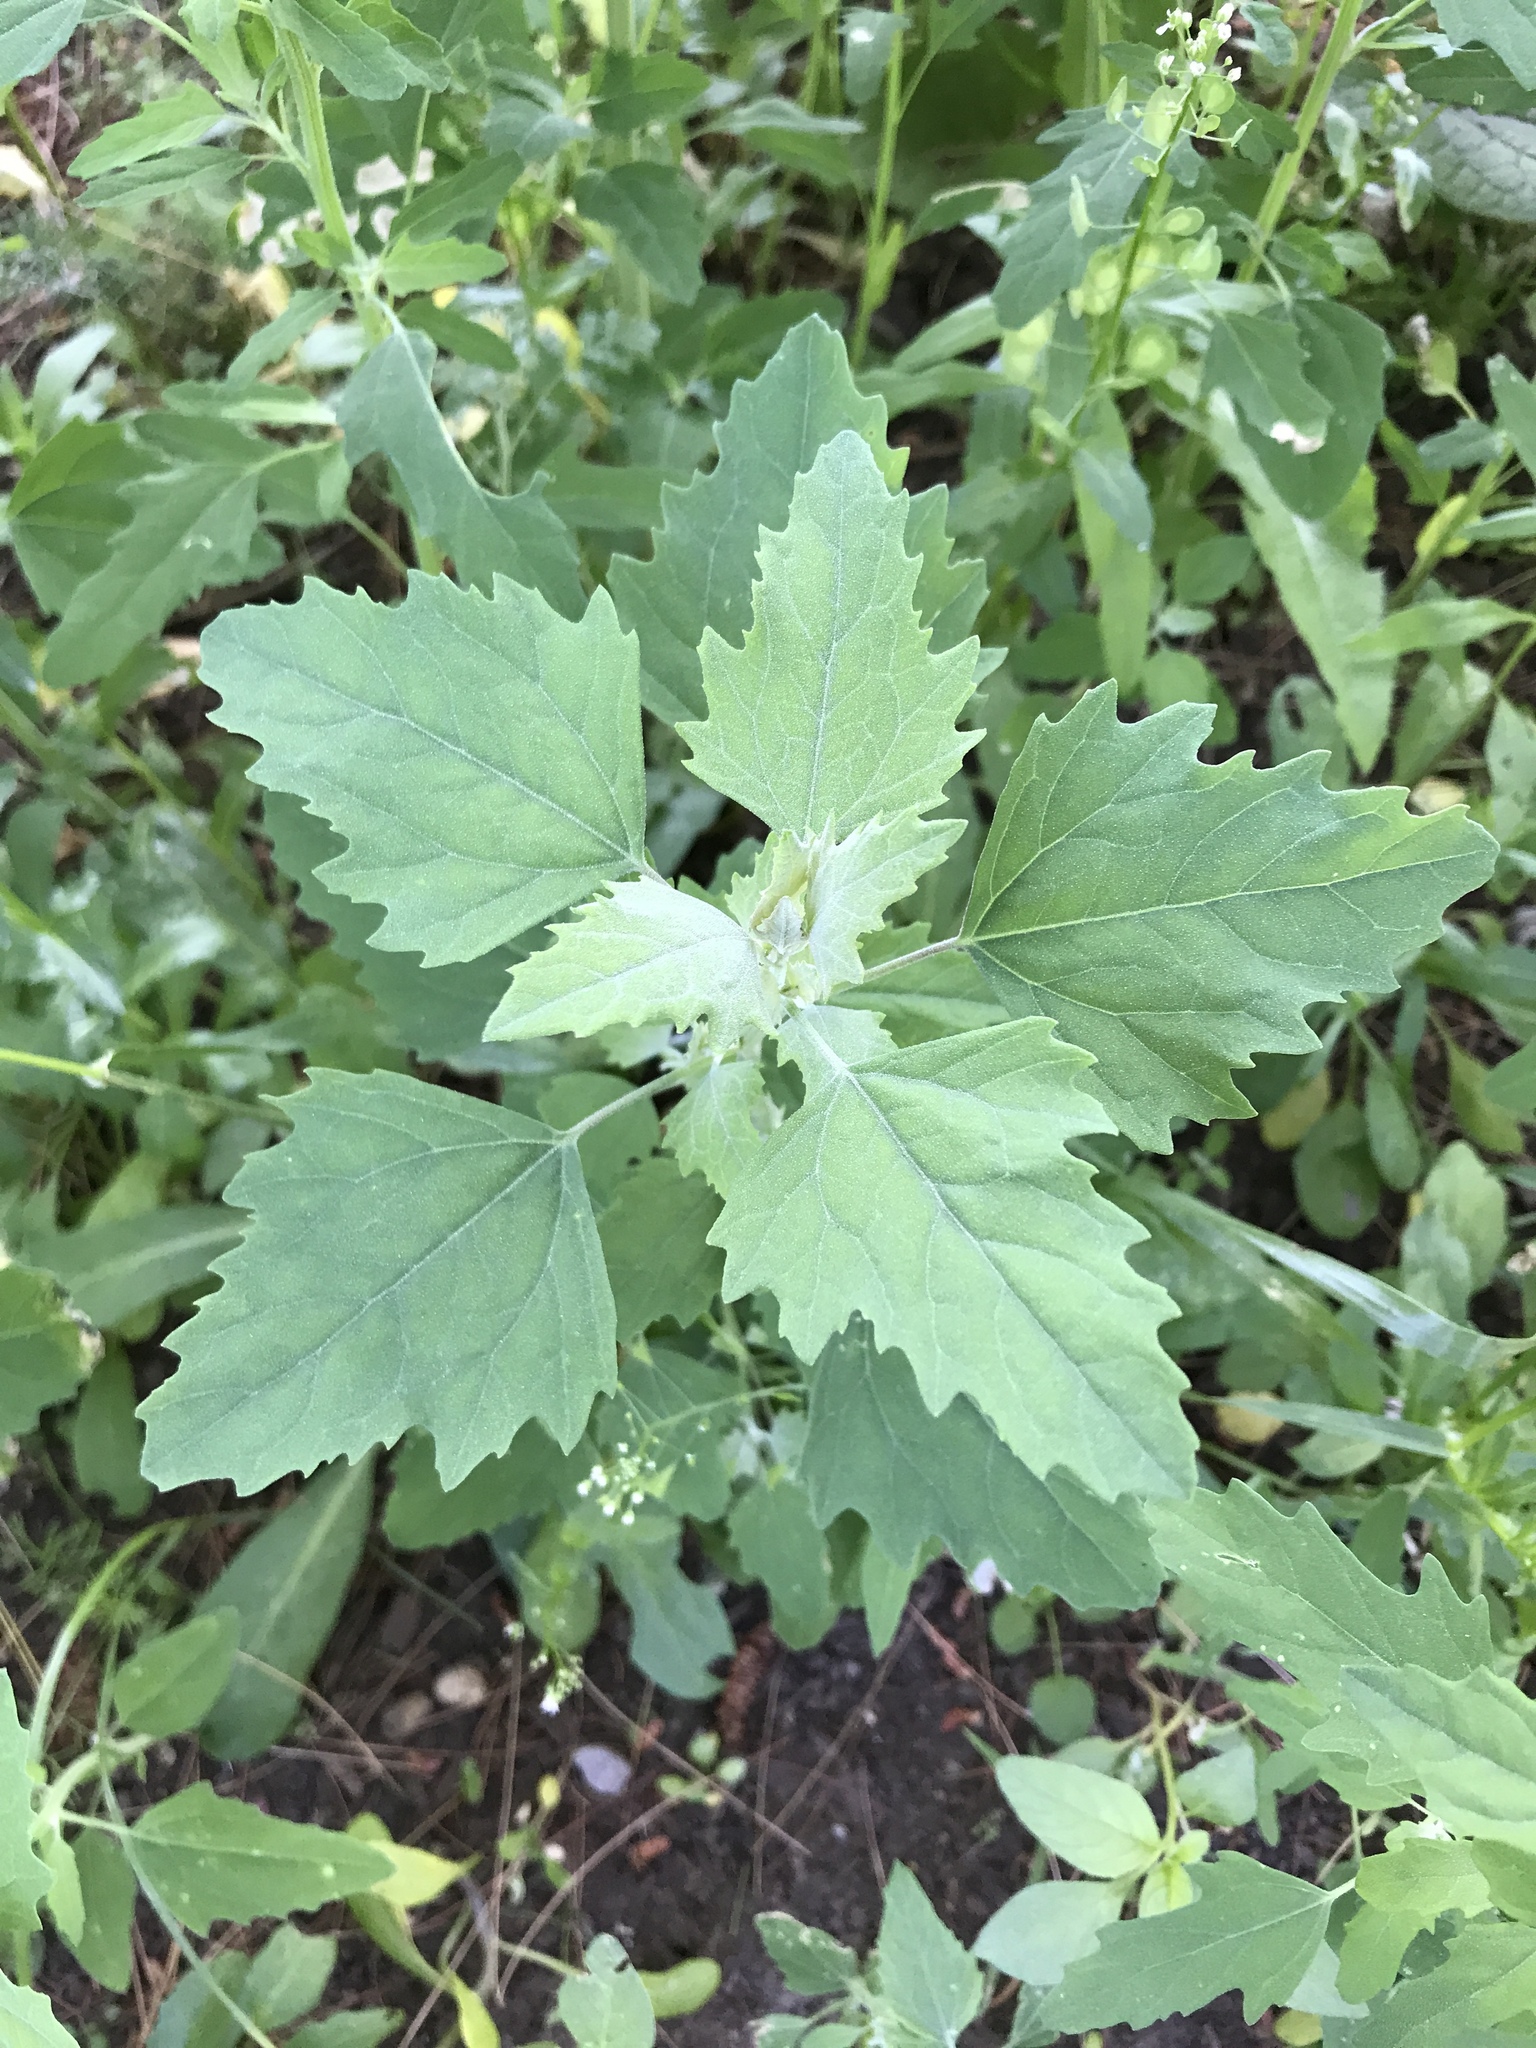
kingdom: Plantae
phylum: Tracheophyta
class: Magnoliopsida
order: Caryophyllales
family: Amaranthaceae
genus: Chenopodium
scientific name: Chenopodium album
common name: Fat-hen
